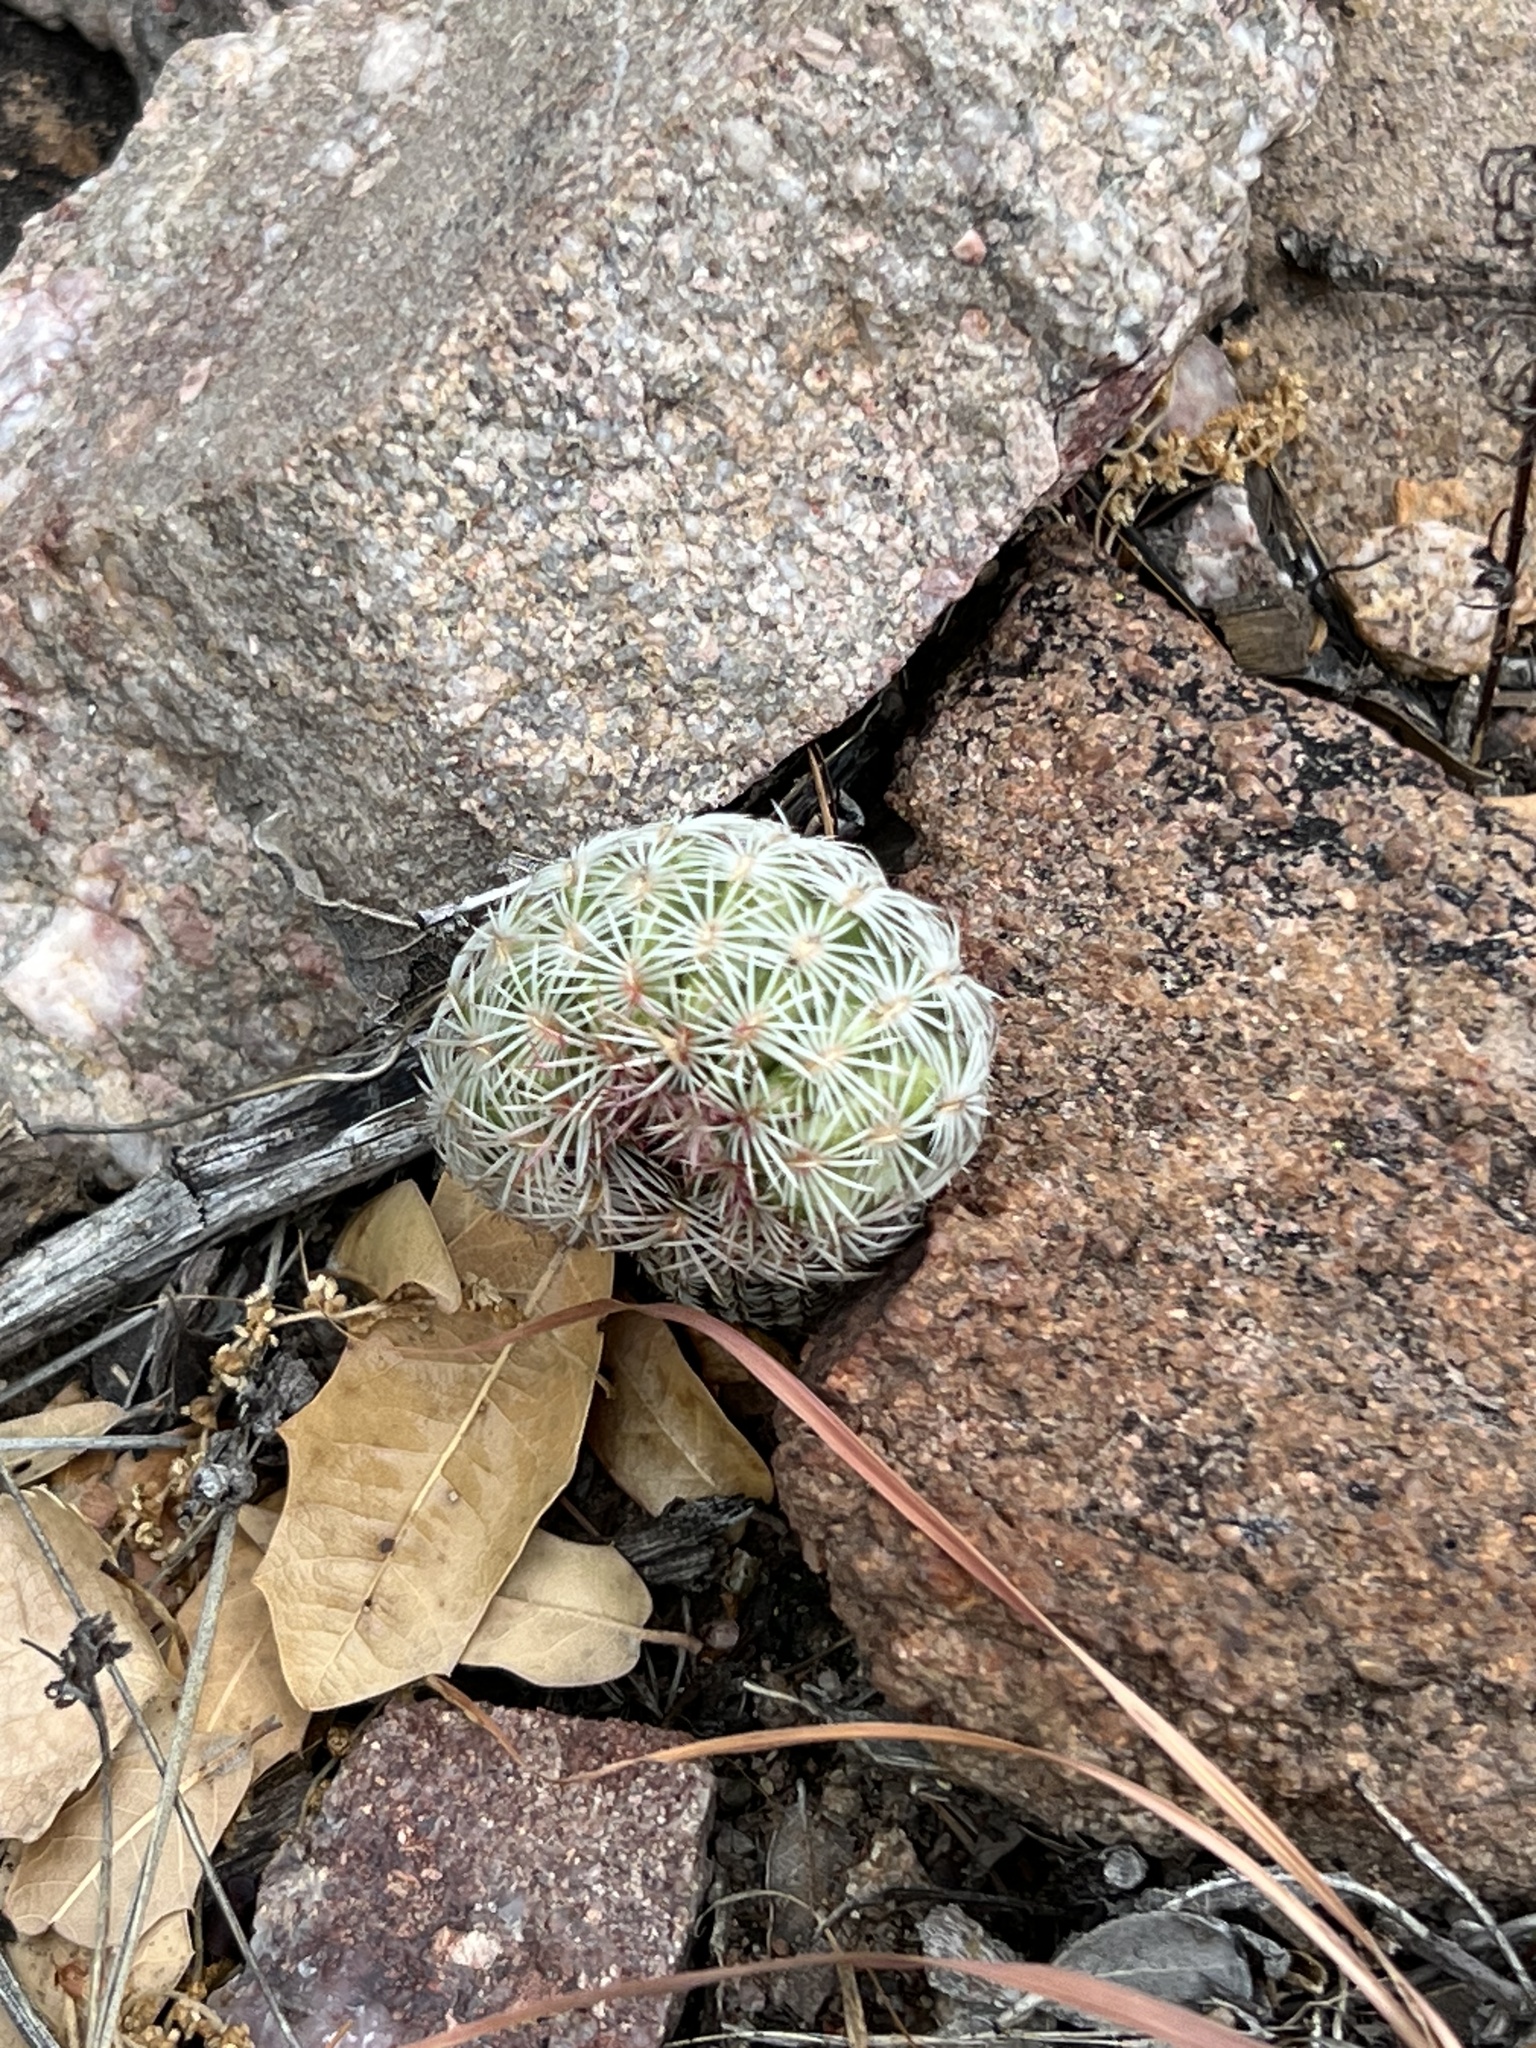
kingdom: Plantae
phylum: Tracheophyta
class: Magnoliopsida
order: Caryophyllales
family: Cactaceae
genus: Echinocereus
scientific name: Echinocereus rigidissimus
